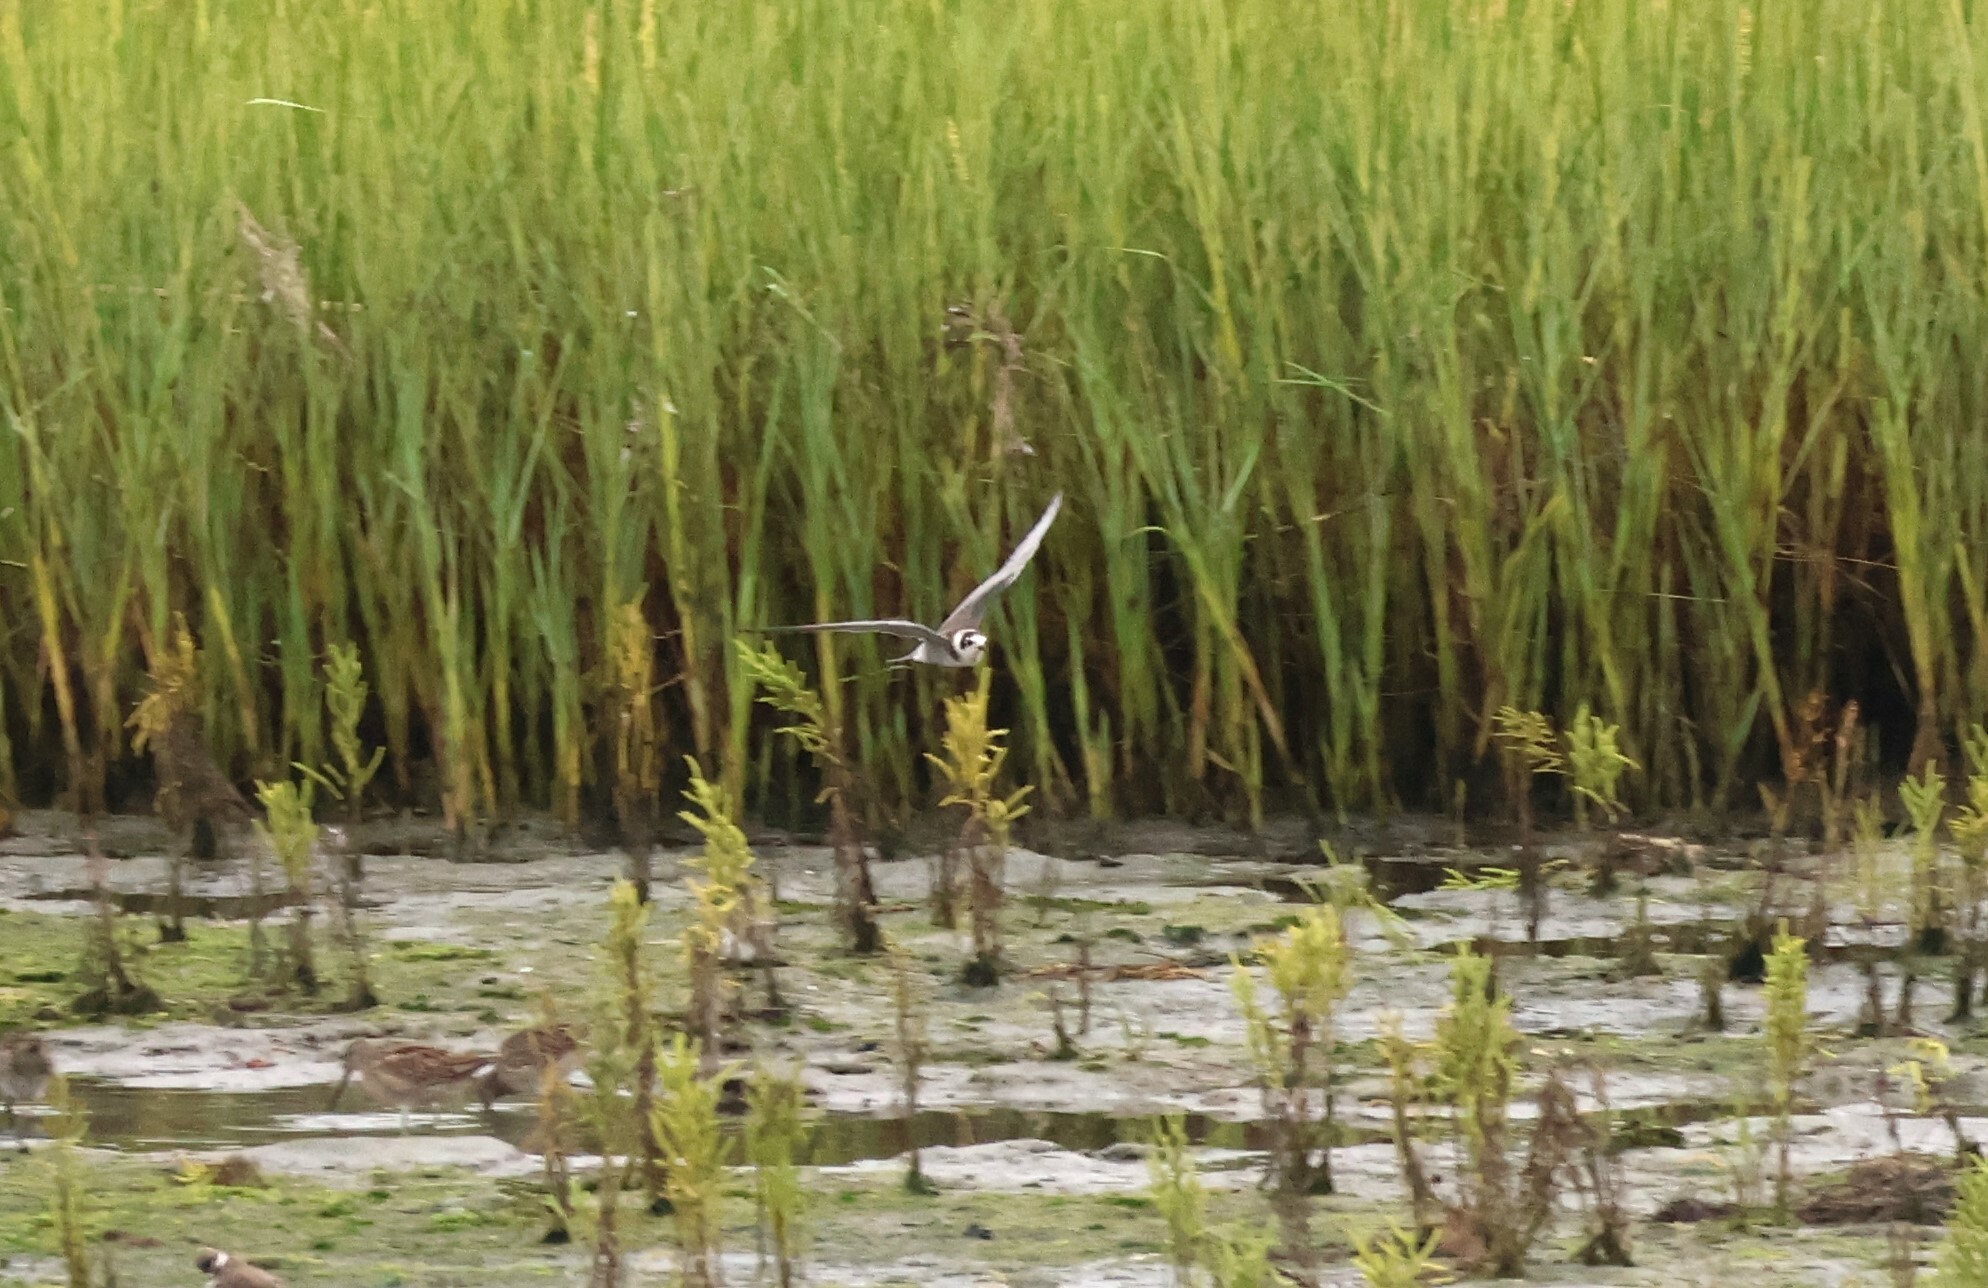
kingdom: Animalia
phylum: Chordata
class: Aves
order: Charadriiformes
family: Laridae
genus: Chlidonias
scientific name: Chlidonias niger
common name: Black tern
